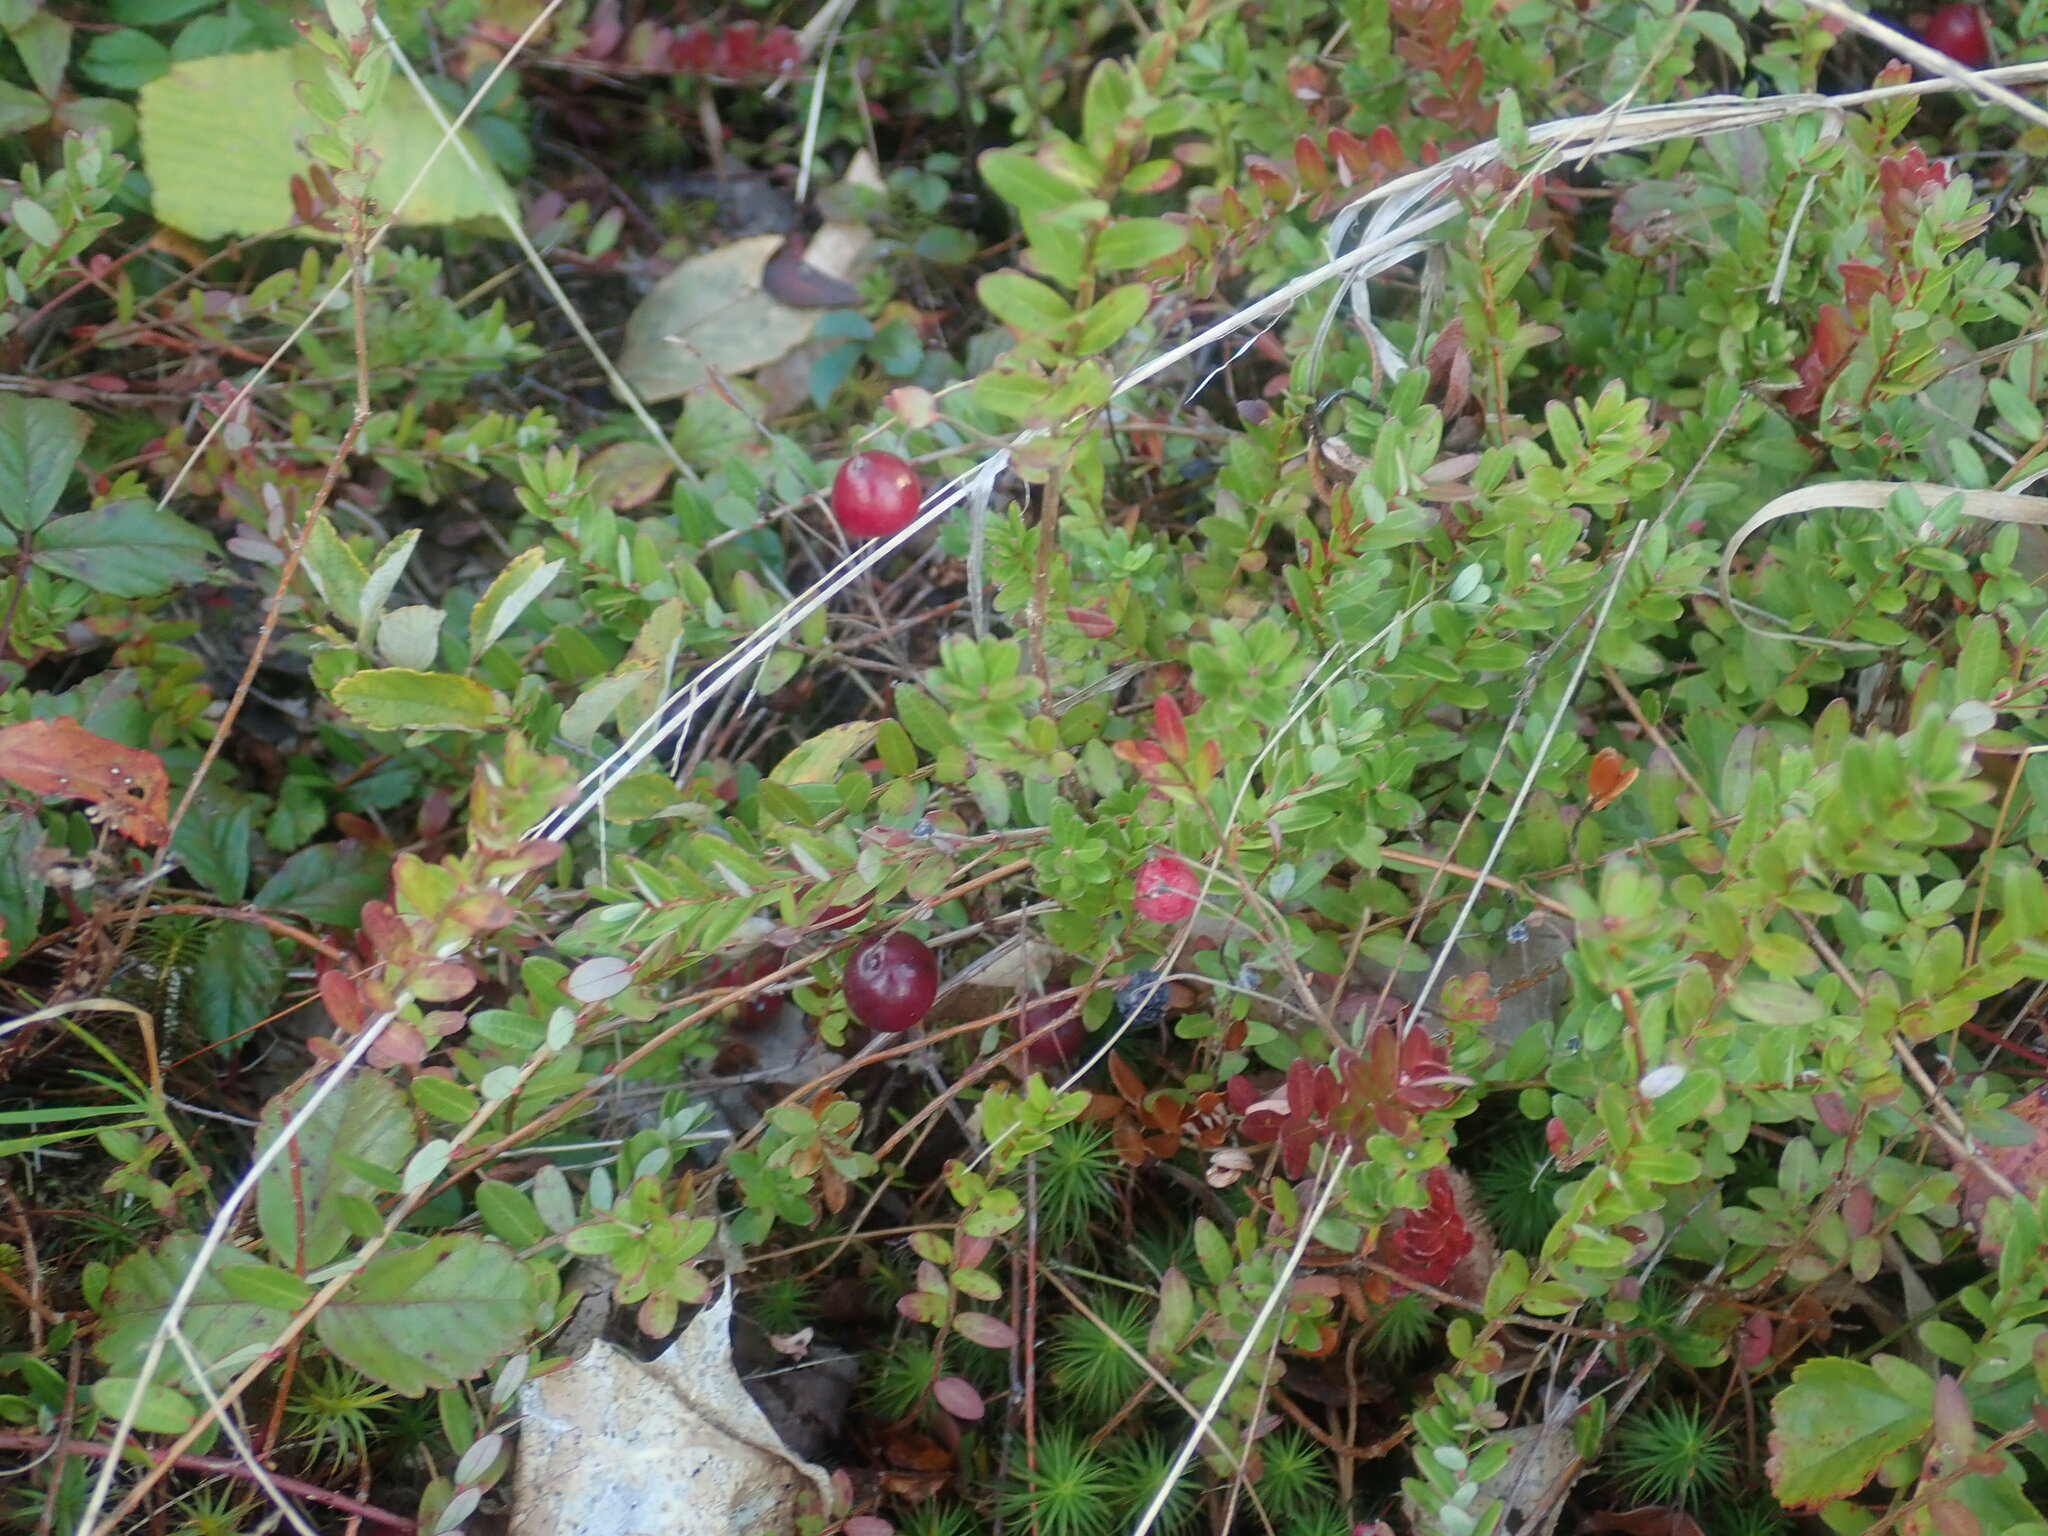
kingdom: Plantae
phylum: Tracheophyta
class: Magnoliopsida
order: Ericales
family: Ericaceae
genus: Vaccinium
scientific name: Vaccinium macrocarpon
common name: American cranberry
